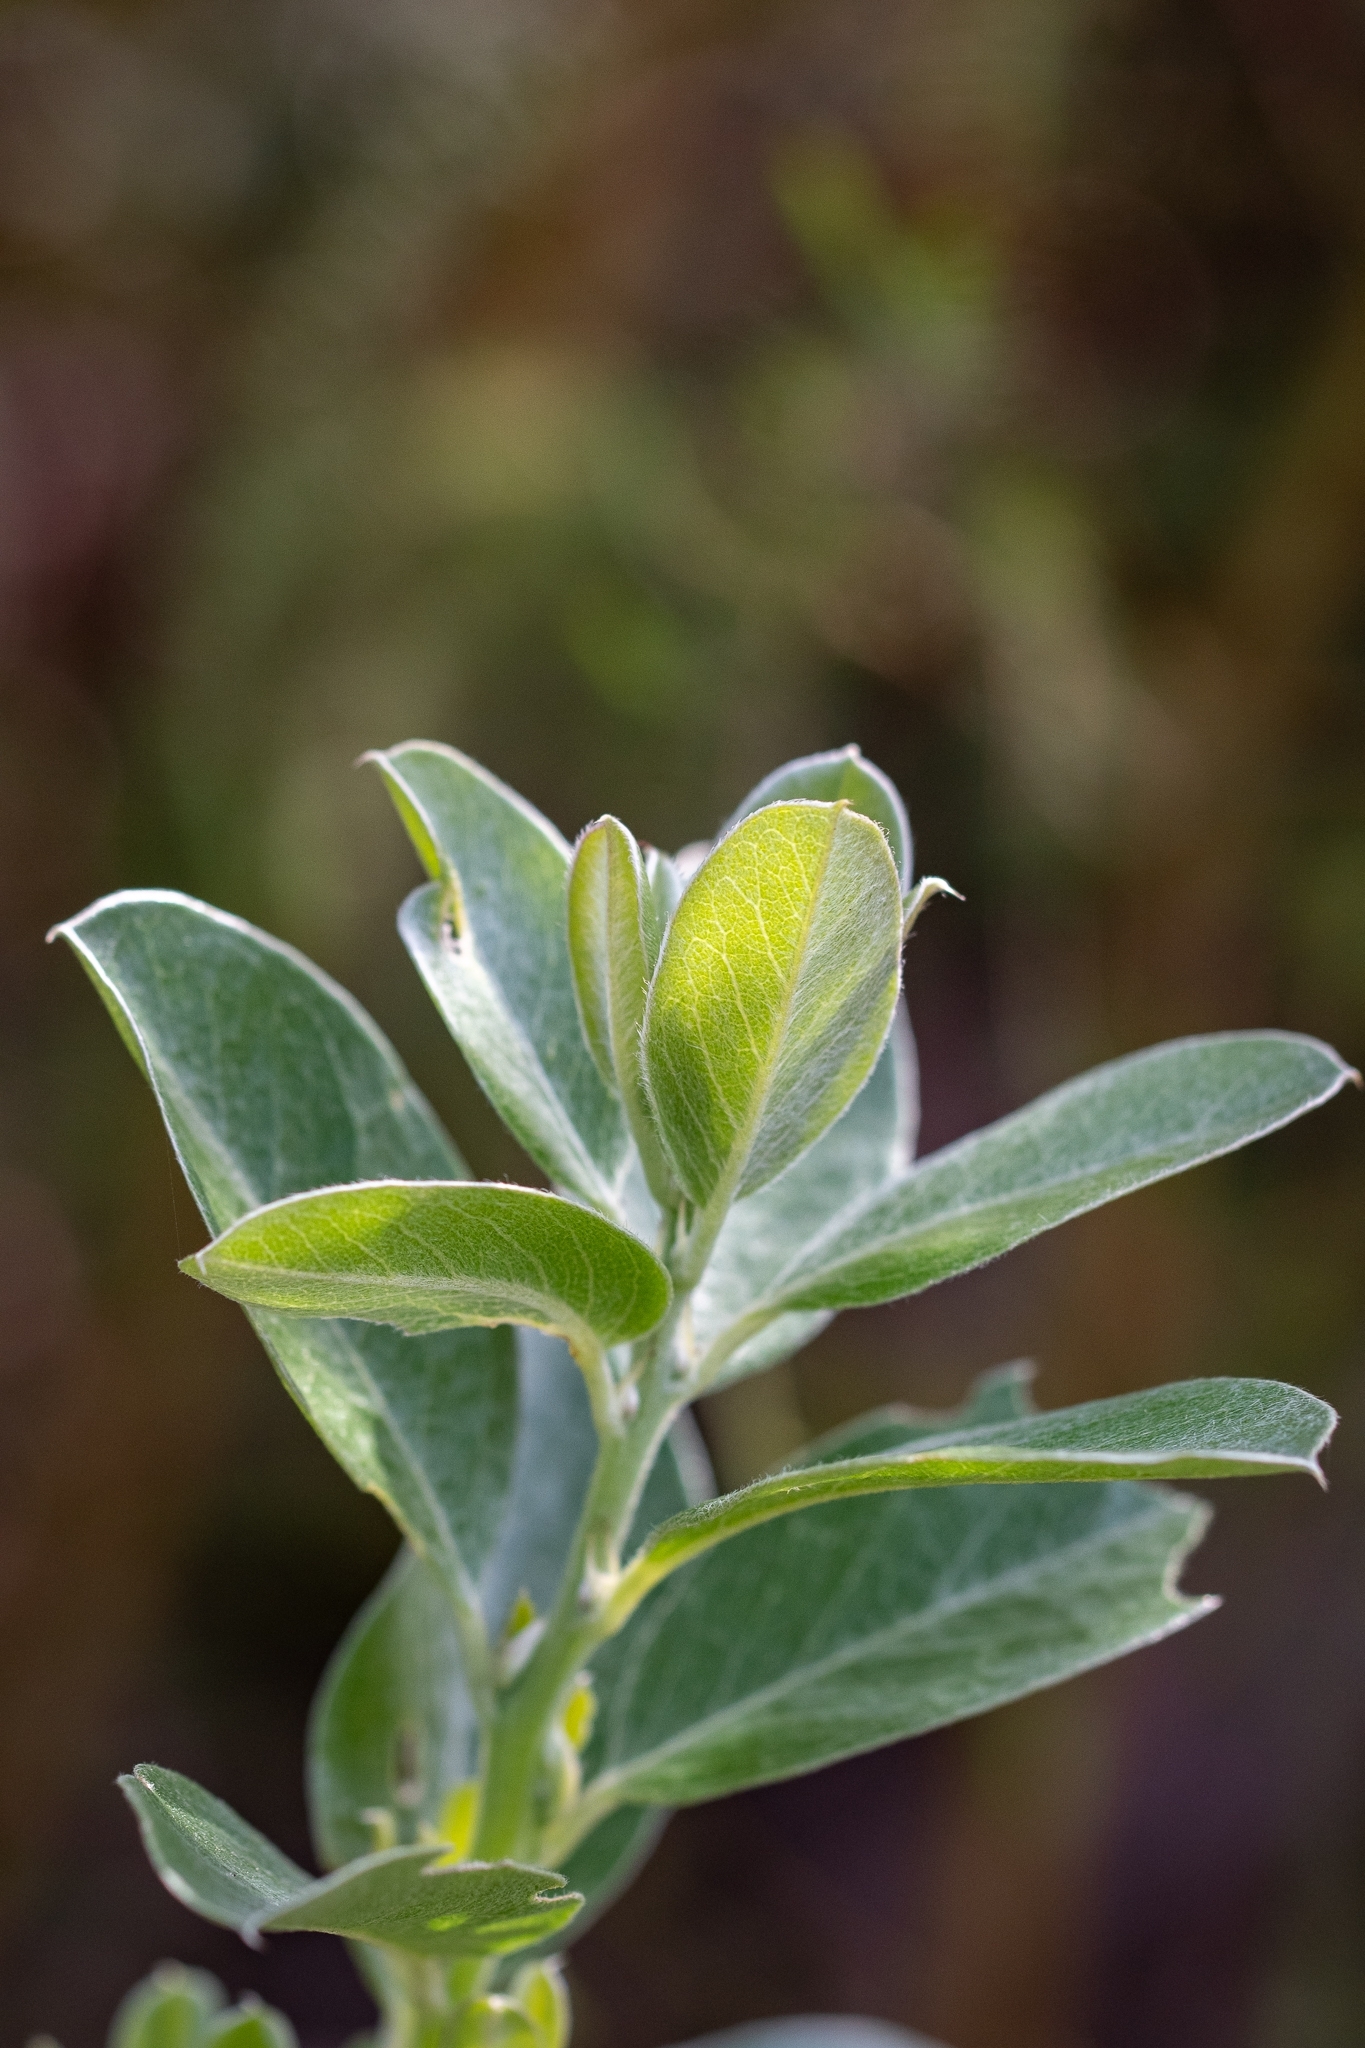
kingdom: Plantae
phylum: Tracheophyta
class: Magnoliopsida
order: Fabales
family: Fabaceae
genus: Podalyria
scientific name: Podalyria calyptrata
